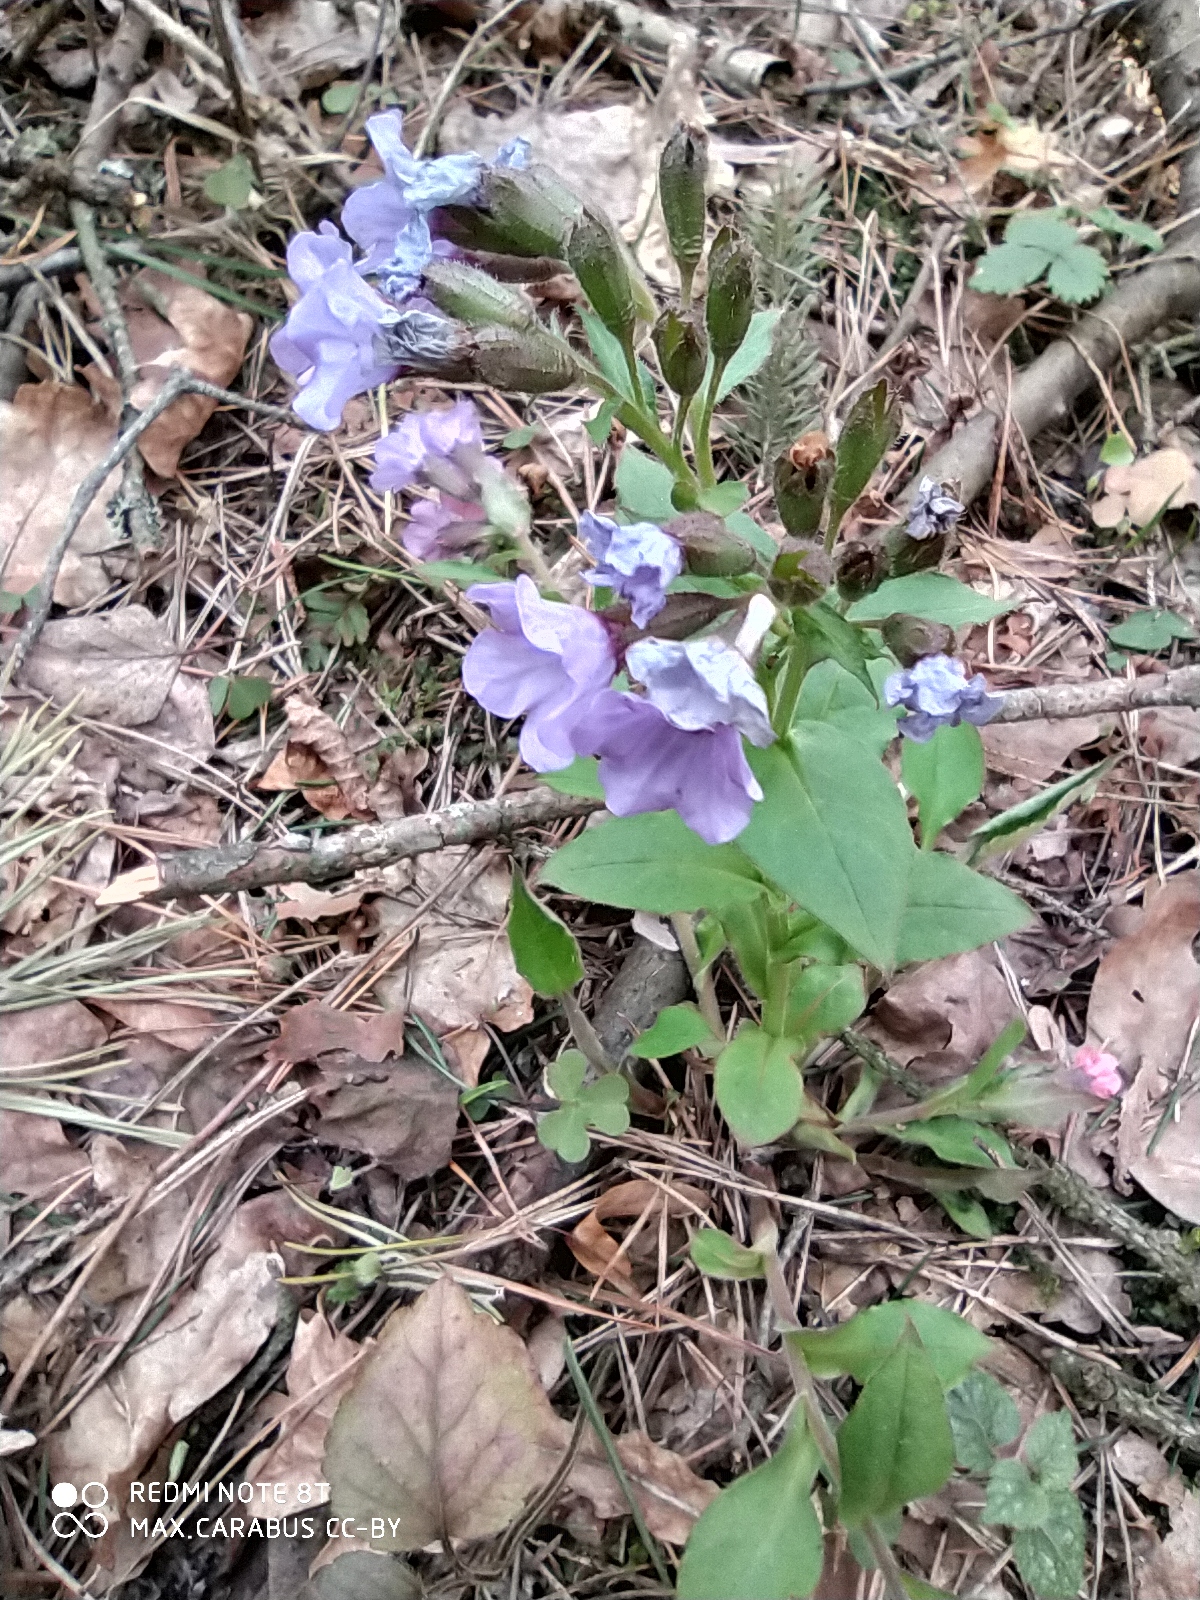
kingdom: Plantae
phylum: Tracheophyta
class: Magnoliopsida
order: Boraginales
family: Boraginaceae
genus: Pulmonaria
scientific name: Pulmonaria obscura
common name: Suffolk lungwort
